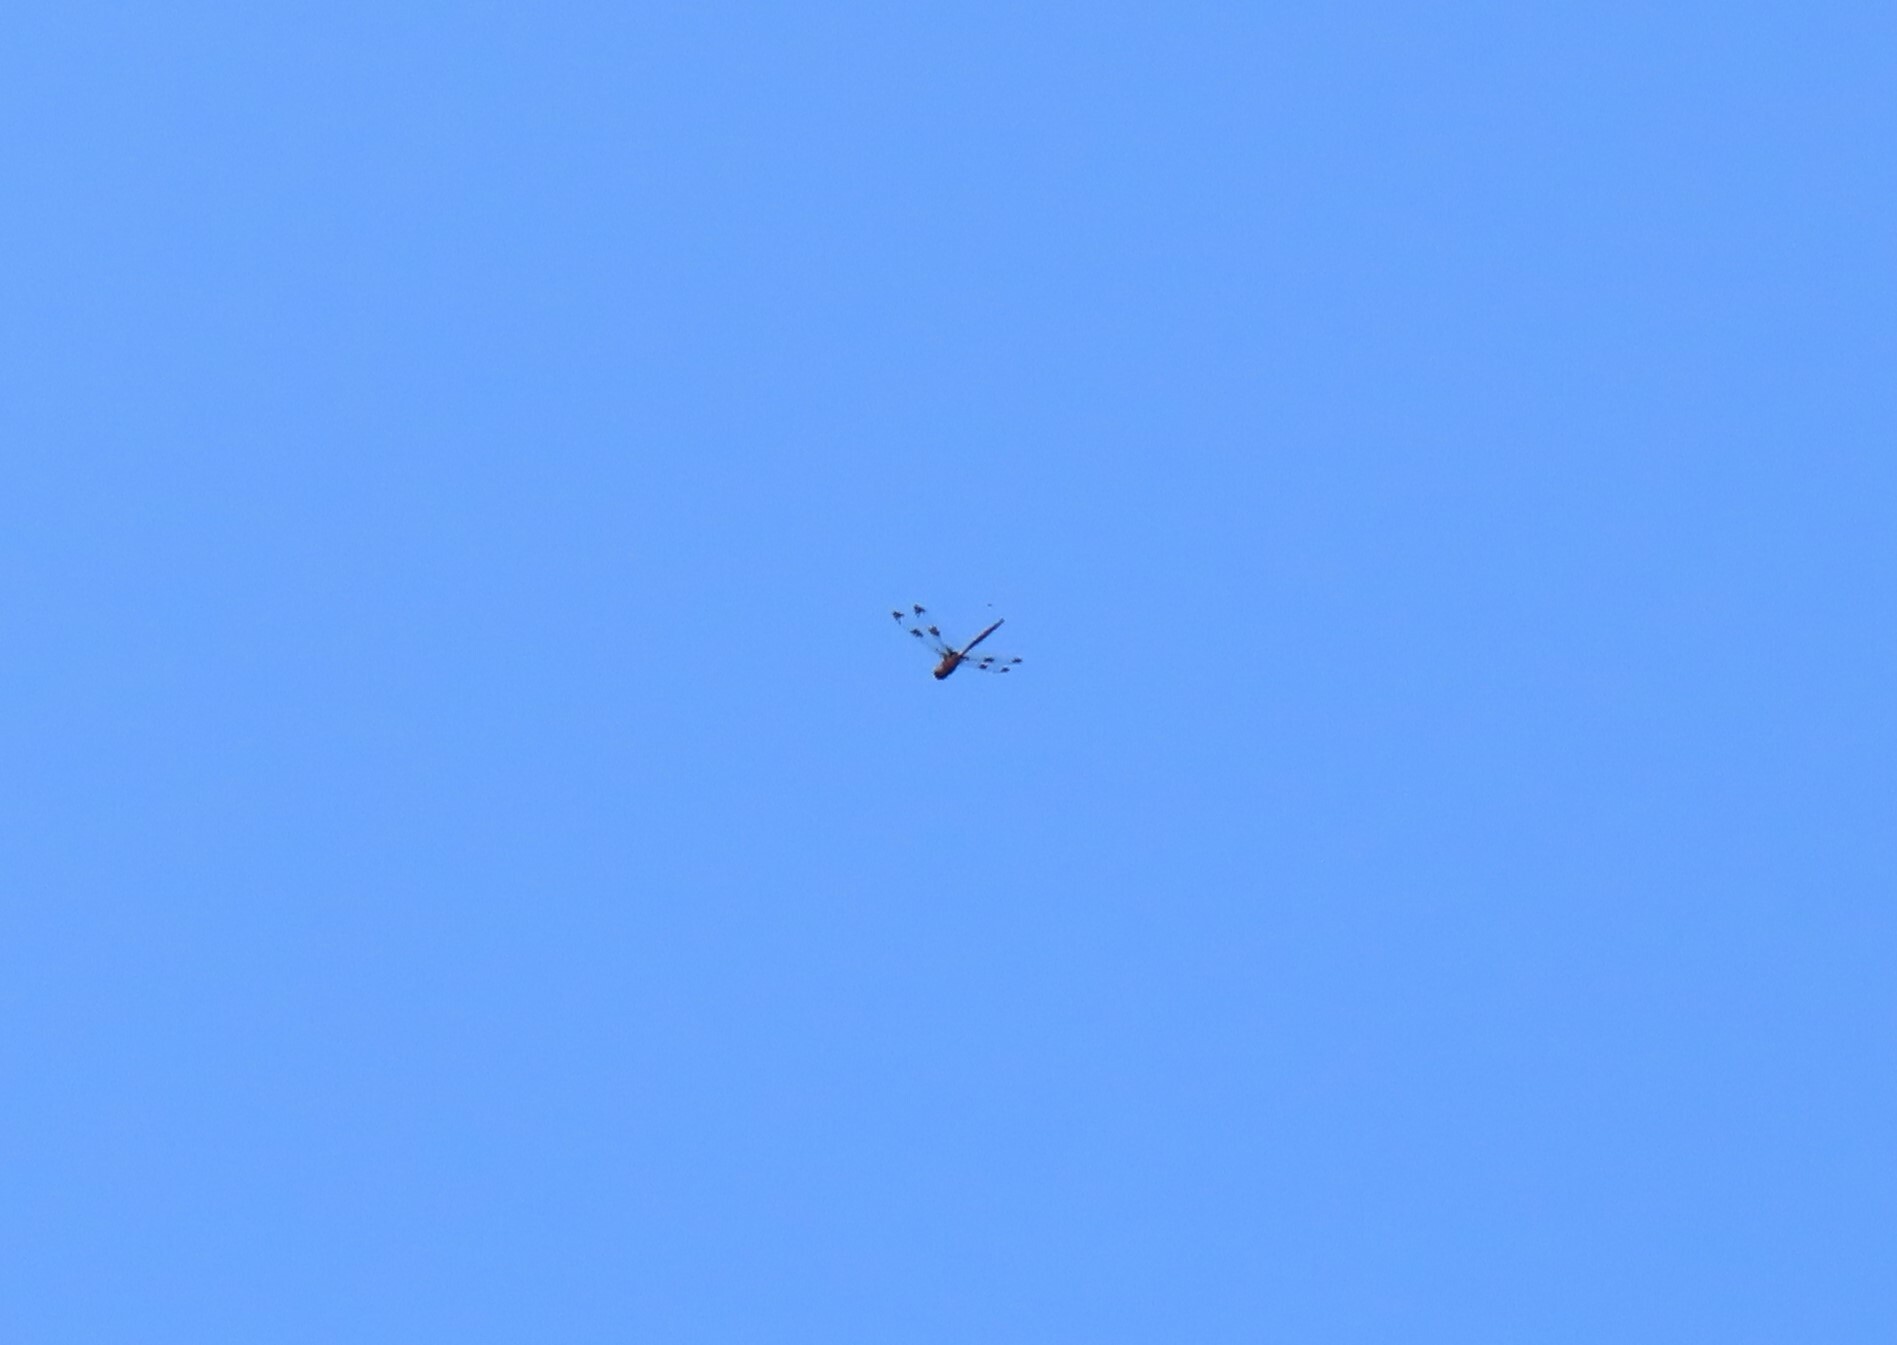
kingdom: Animalia
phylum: Arthropoda
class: Insecta
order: Odonata
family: Corduliidae
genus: Epitheca
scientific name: Epitheca princeps
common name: Prince baskettail
